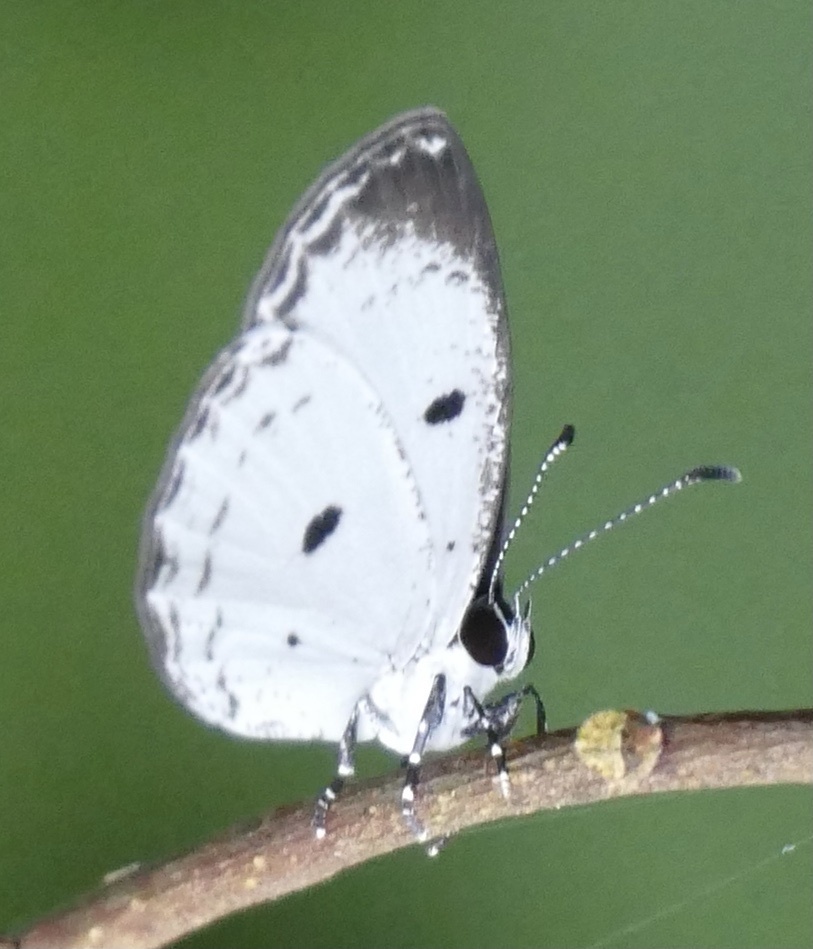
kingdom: Animalia
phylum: Arthropoda
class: Insecta
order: Lepidoptera
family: Lycaenidae
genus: Tetrarhanis
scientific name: Tetrarhanis synplocus
